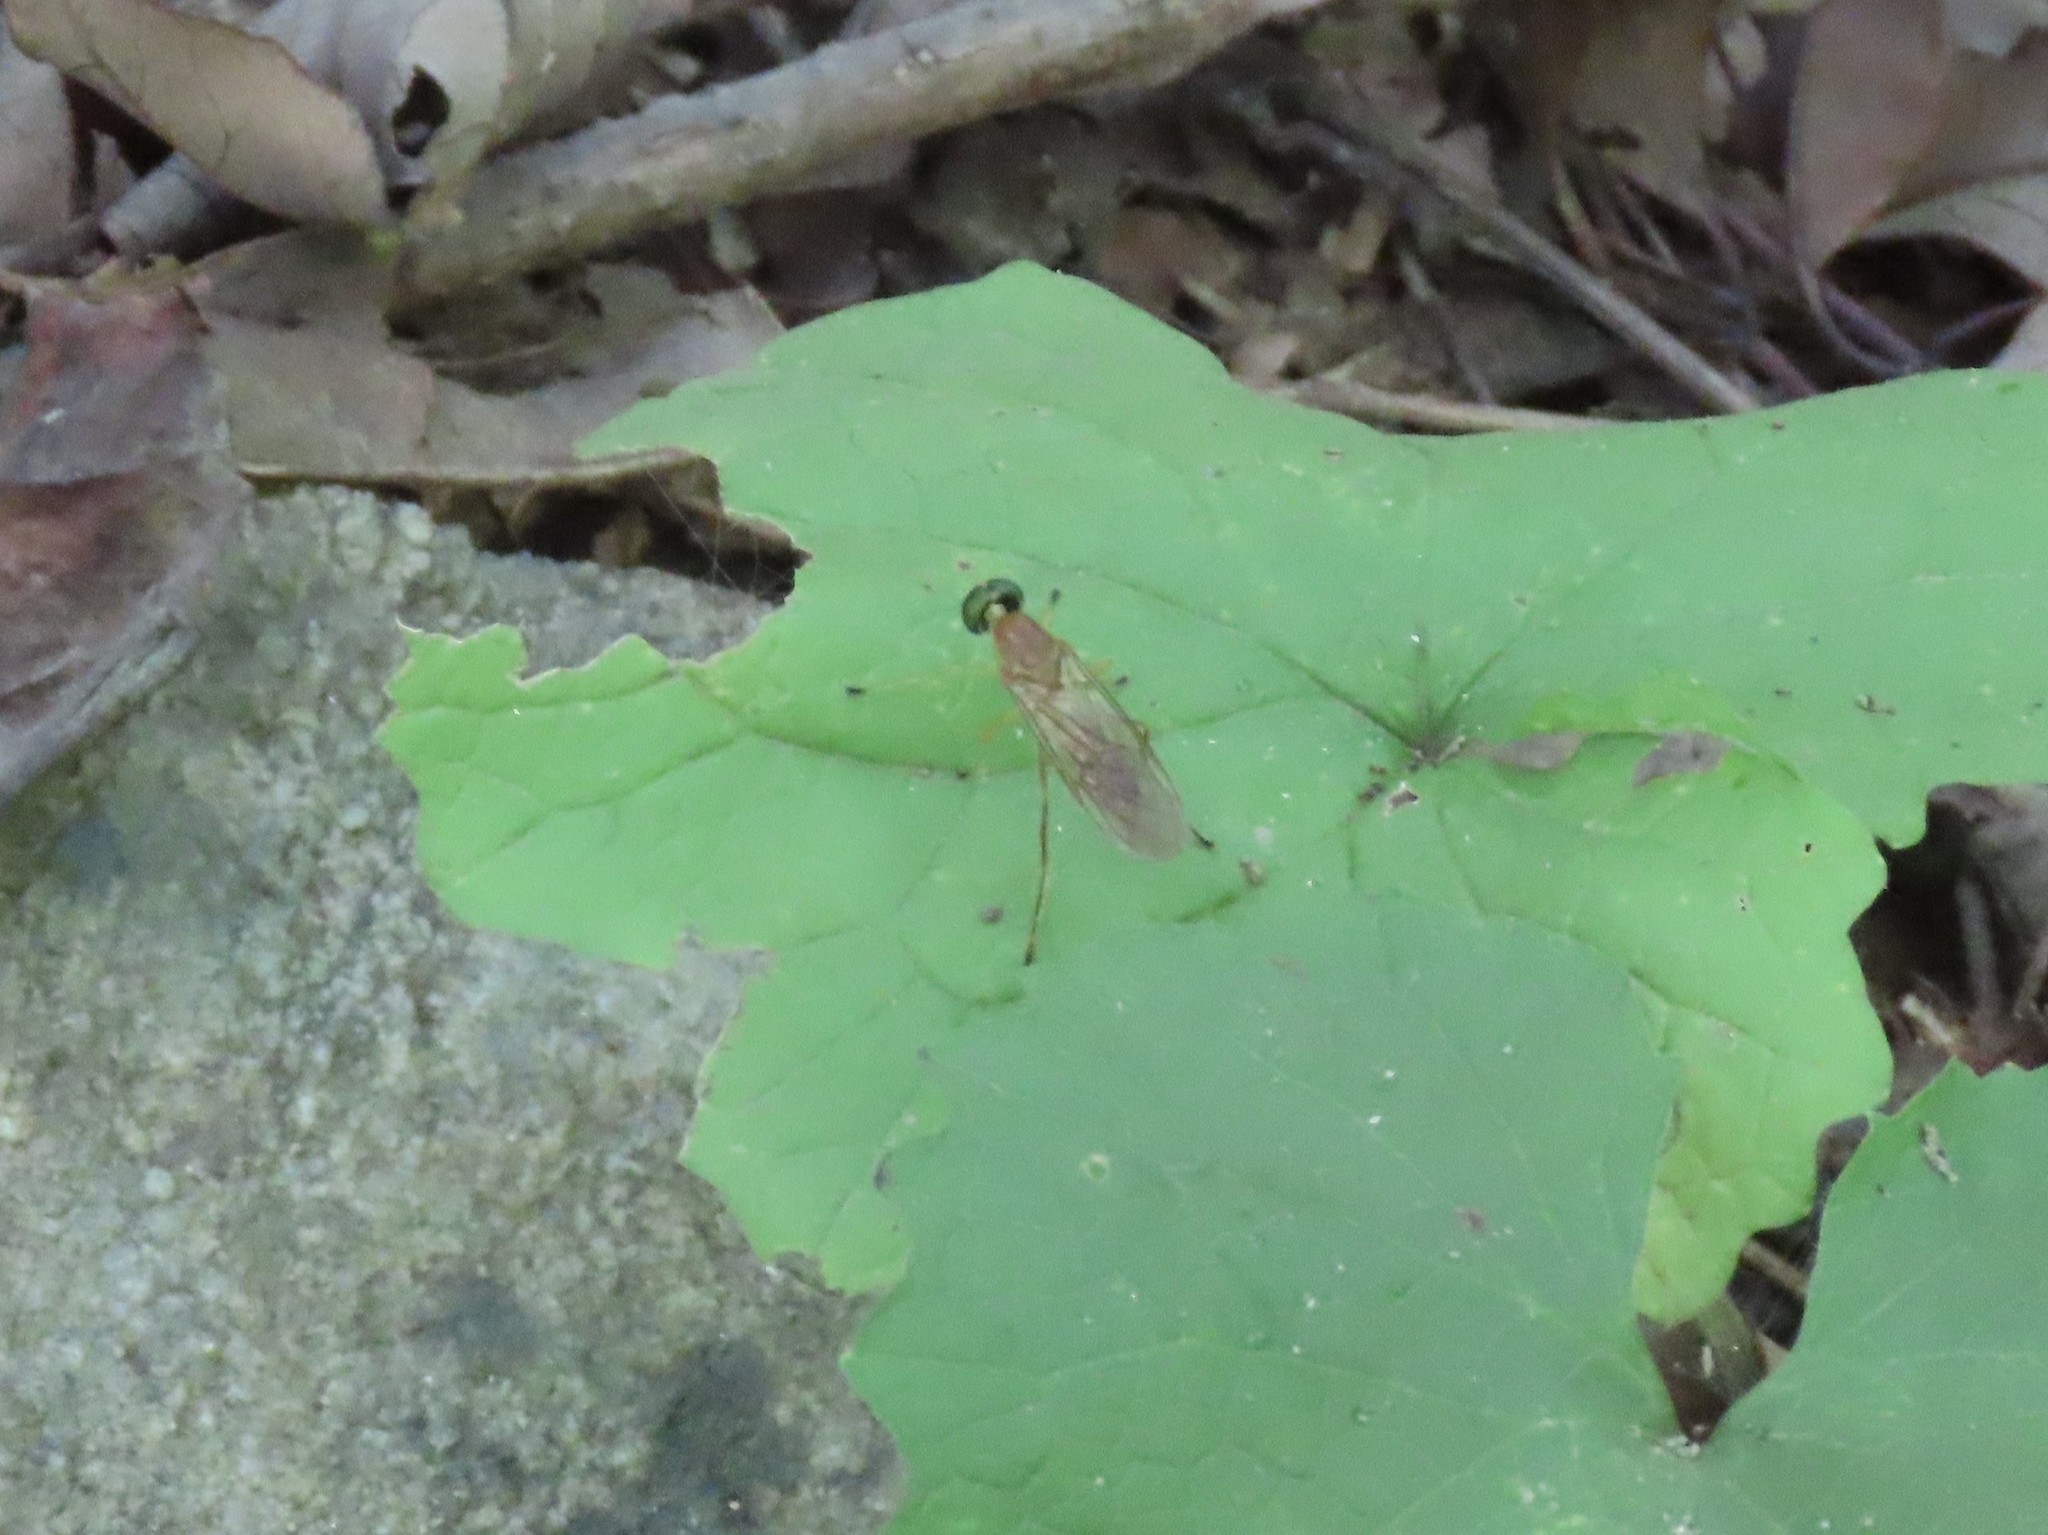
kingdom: Animalia
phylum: Arthropoda
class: Insecta
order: Diptera
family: Stratiomyidae
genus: Ptecticus
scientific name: Ptecticus trivittatus
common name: Compost fly
